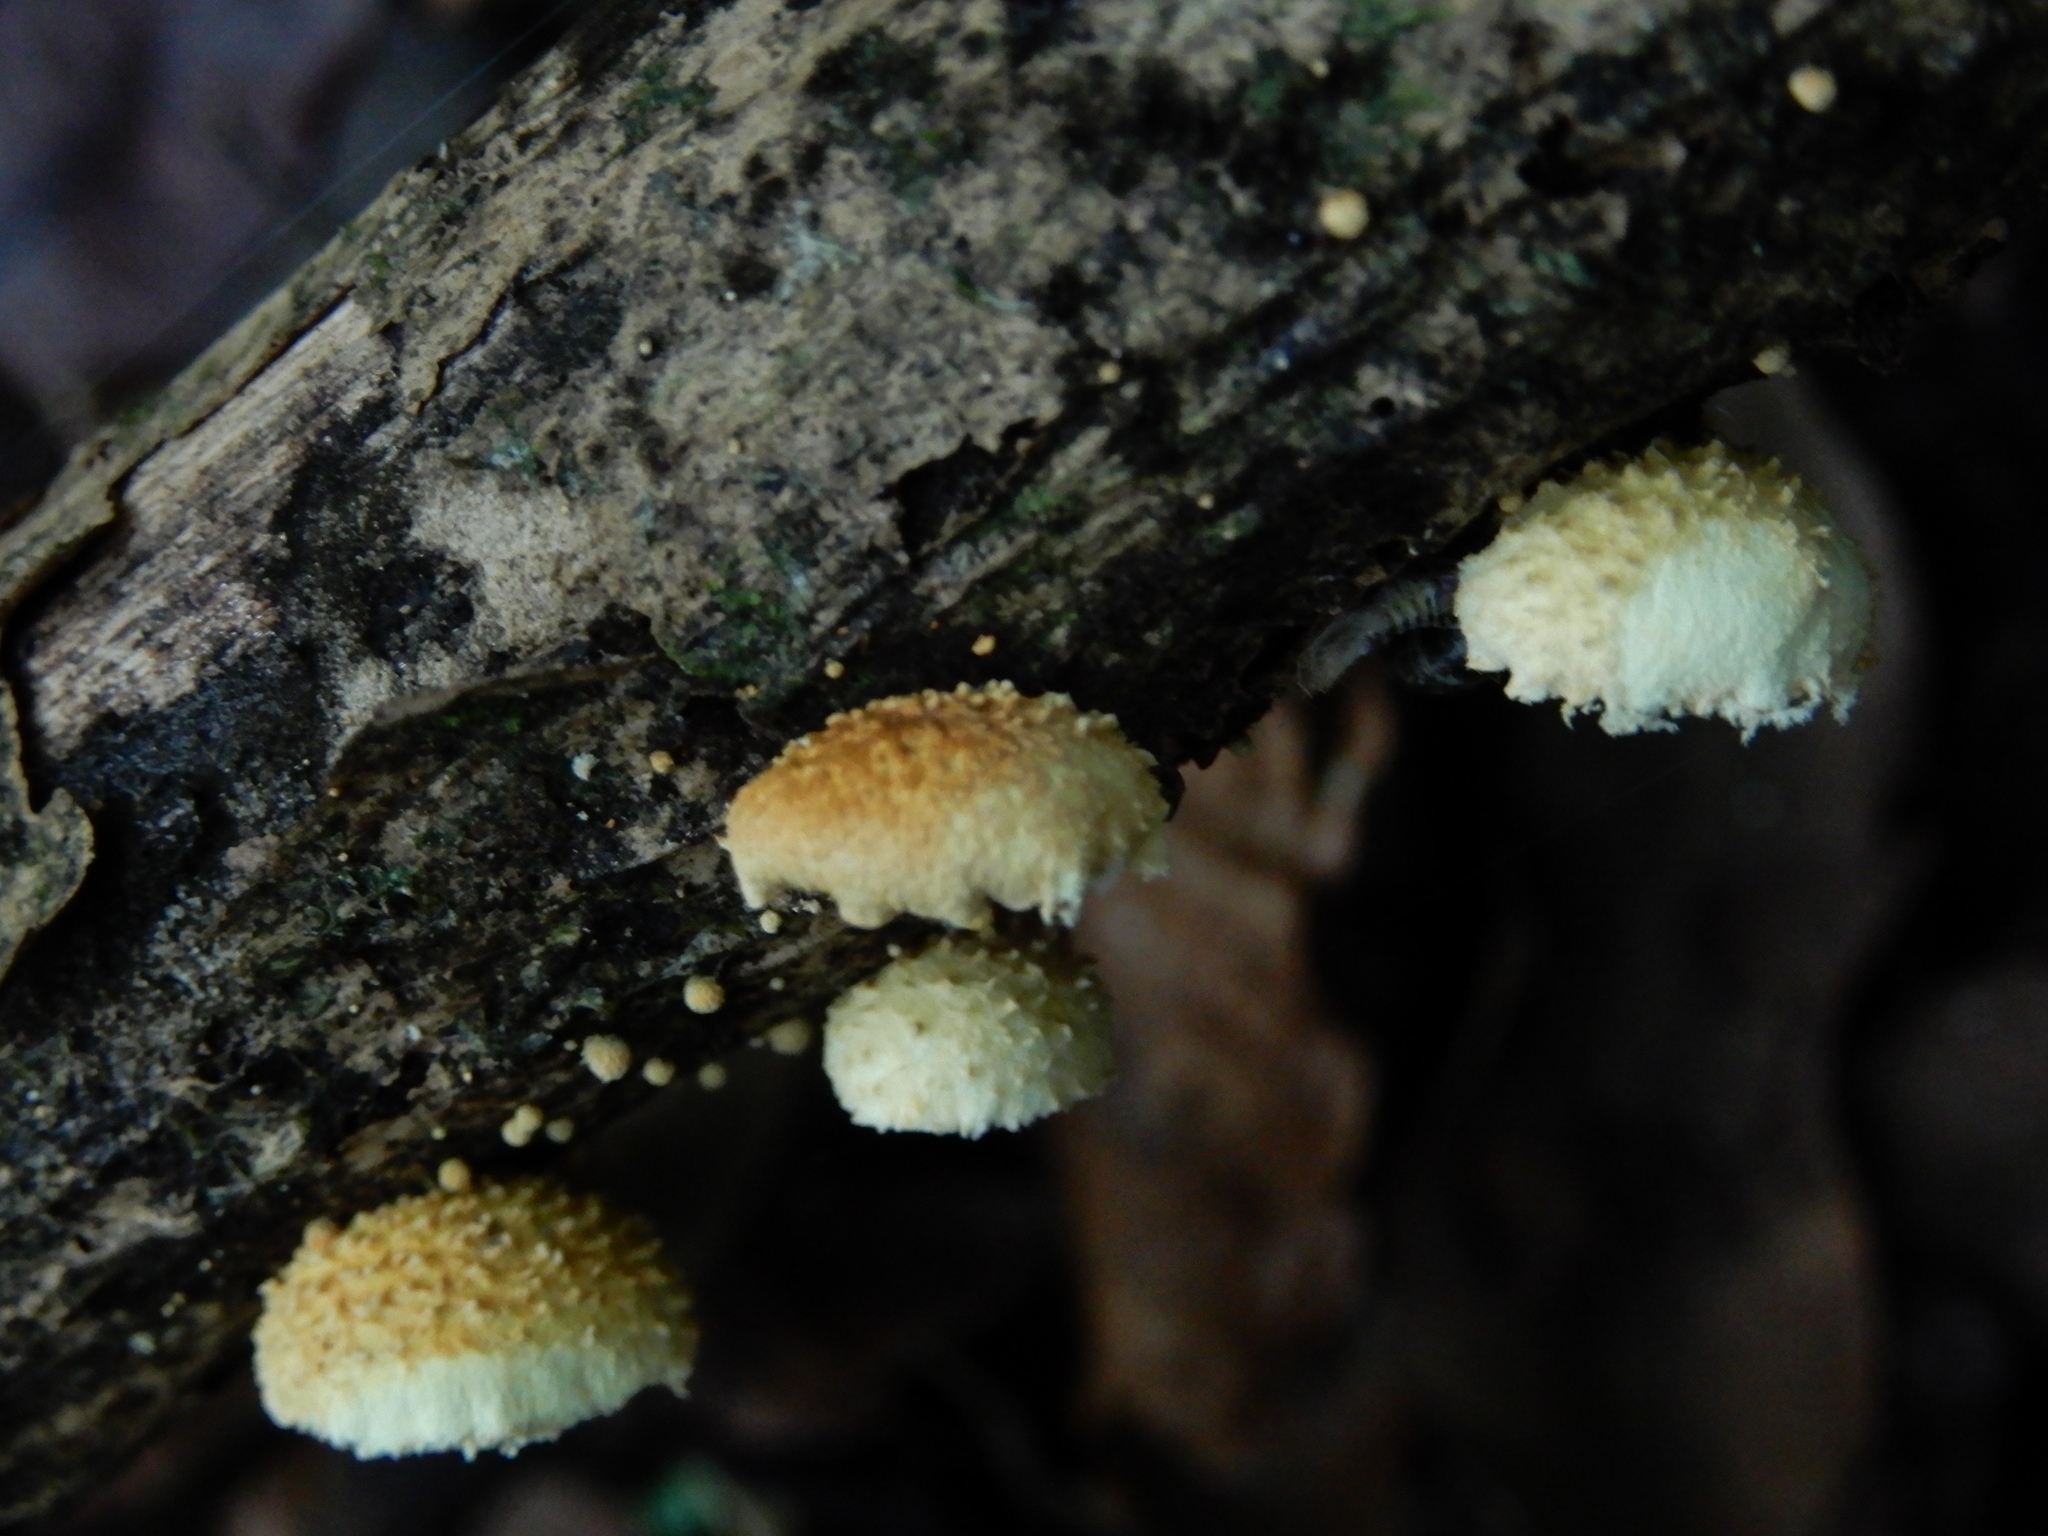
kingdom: Fungi
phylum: Basidiomycota
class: Agaricomycetes
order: Agaricales
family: Crepidotaceae
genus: Pleuroflammula
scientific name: Pleuroflammula praestans
